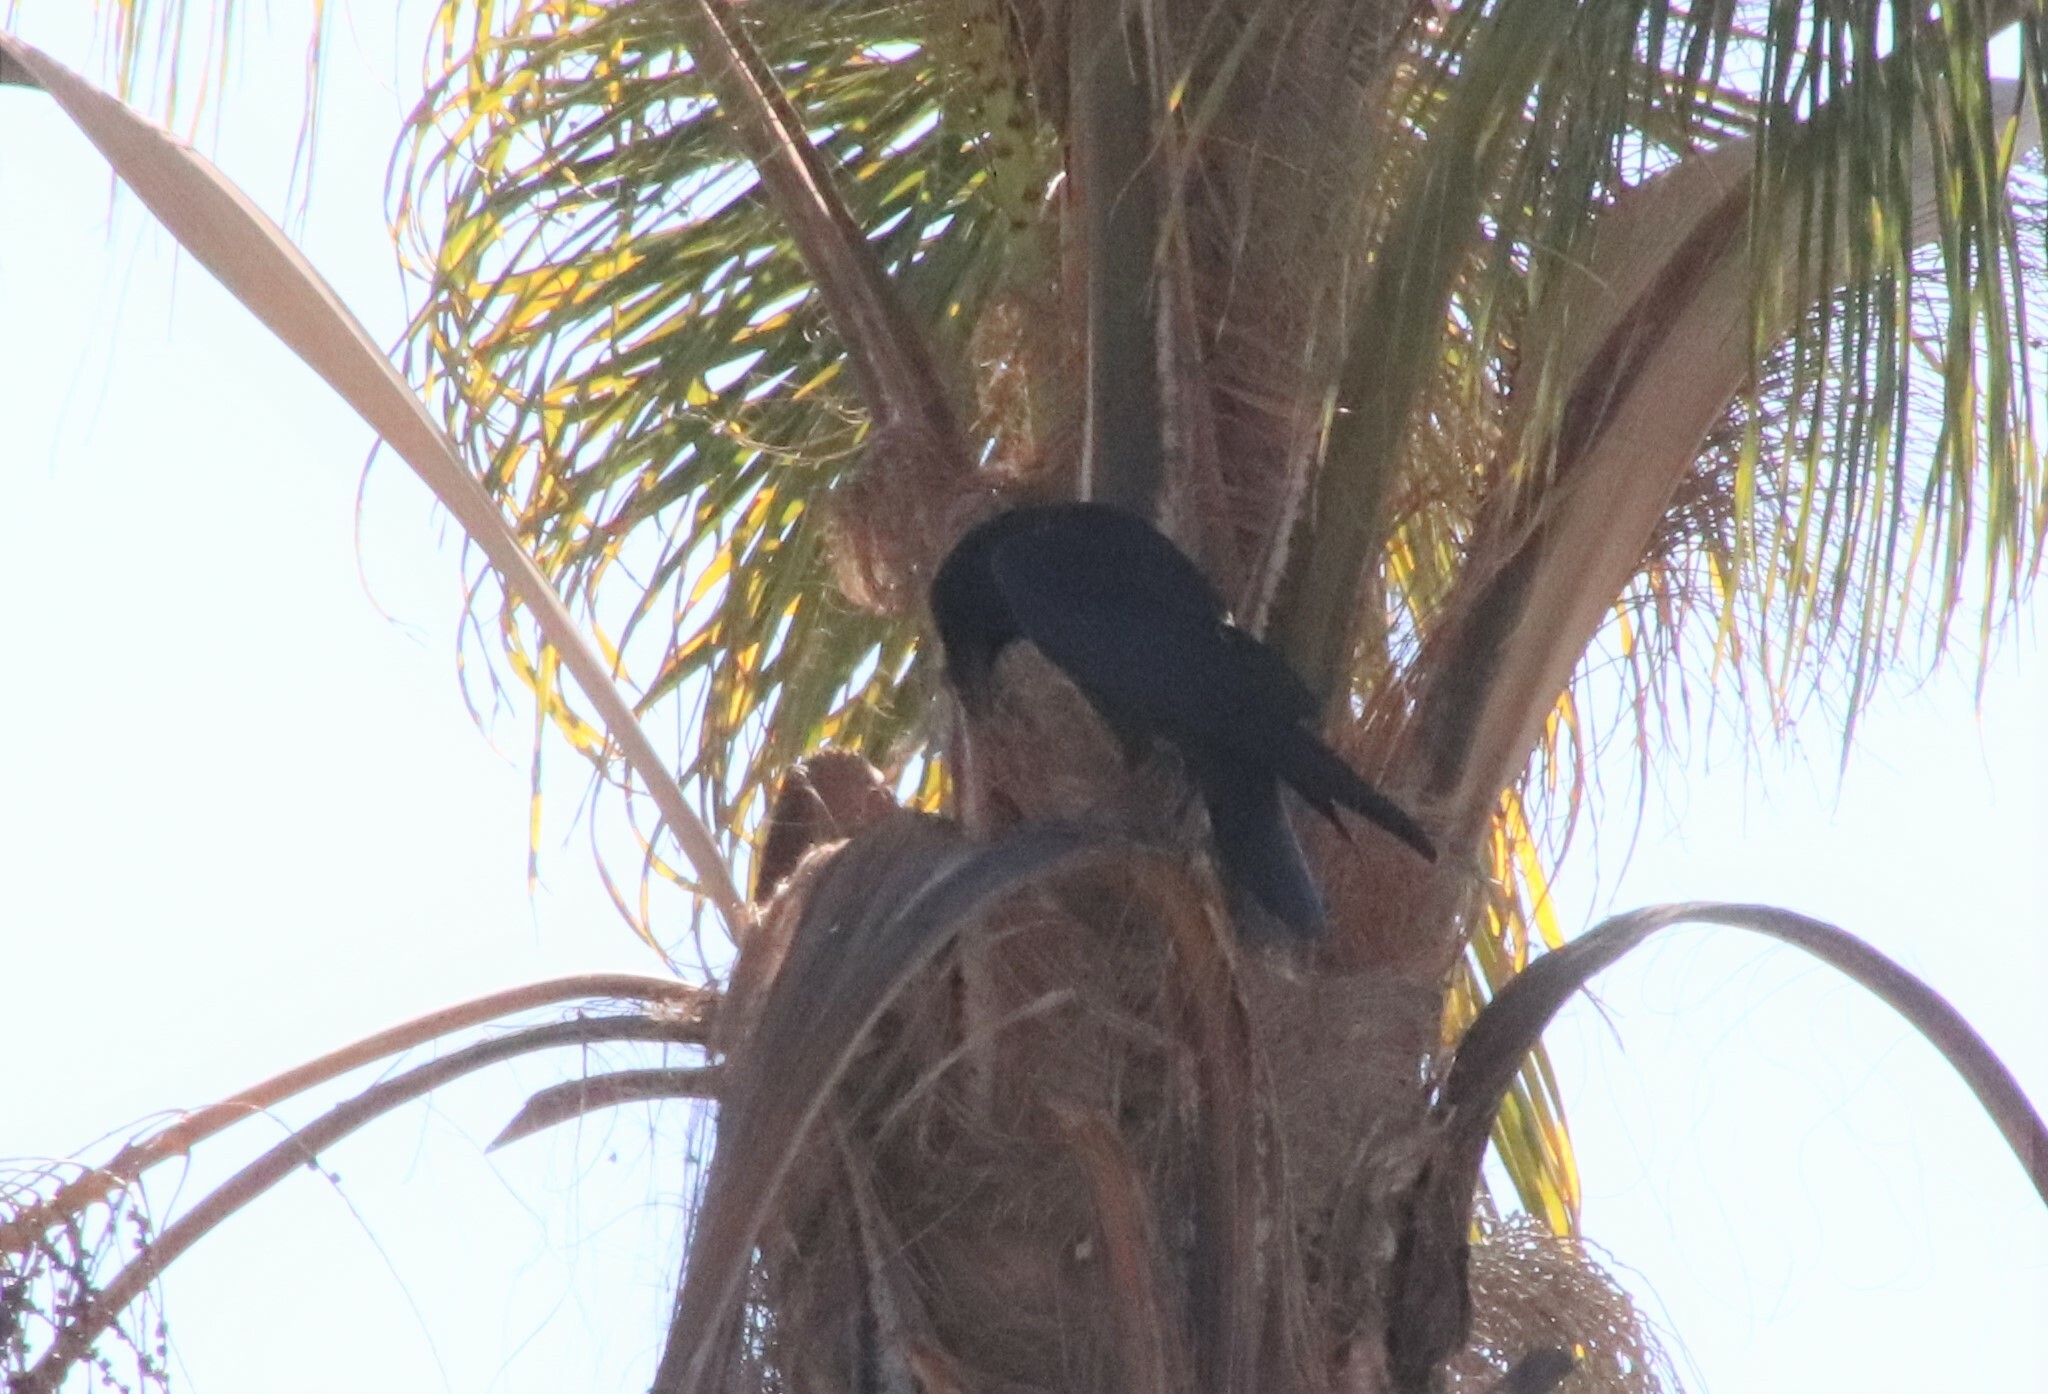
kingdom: Animalia
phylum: Chordata
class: Aves
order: Passeriformes
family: Corvidae
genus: Corvus
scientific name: Corvus corax
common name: Common raven
